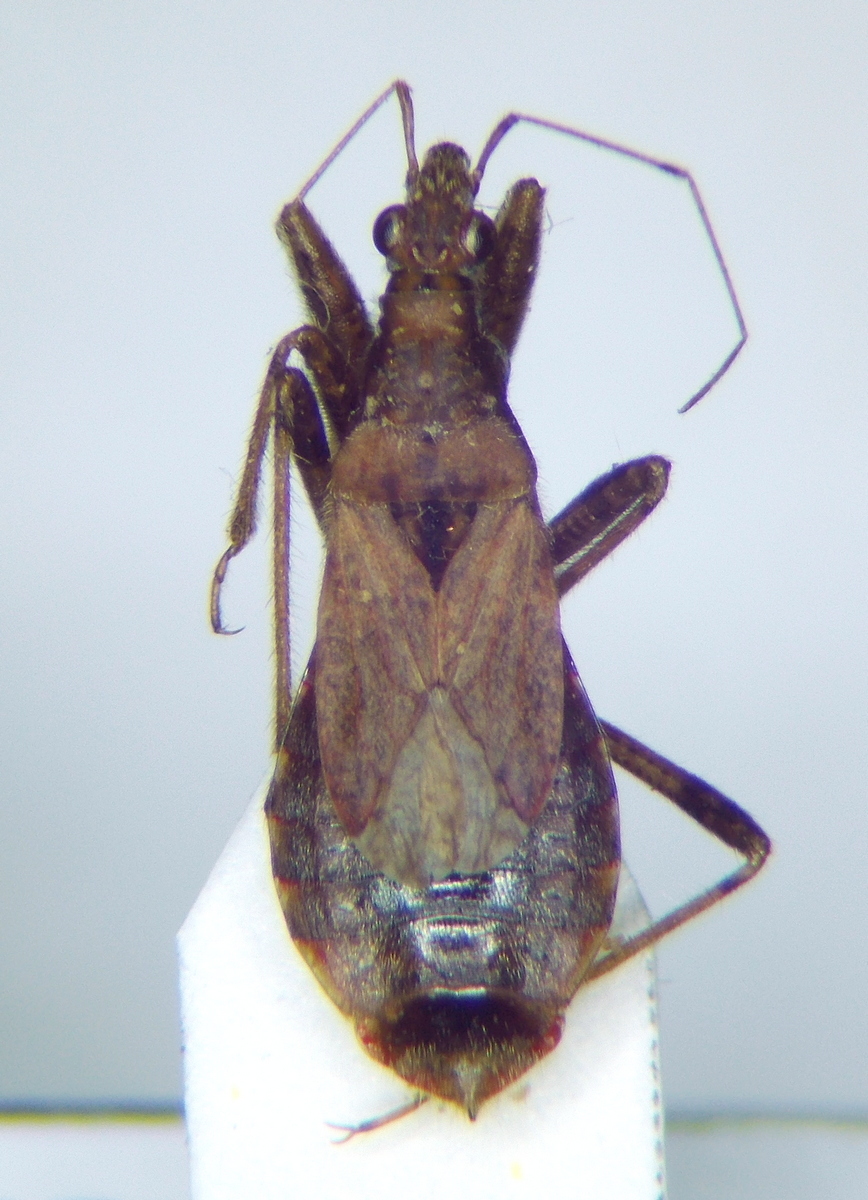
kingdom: Animalia
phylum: Arthropoda
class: Insecta
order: Hemiptera
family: Nabidae
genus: Himacerus
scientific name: Himacerus mirmicoides
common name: Ant damsel bug
